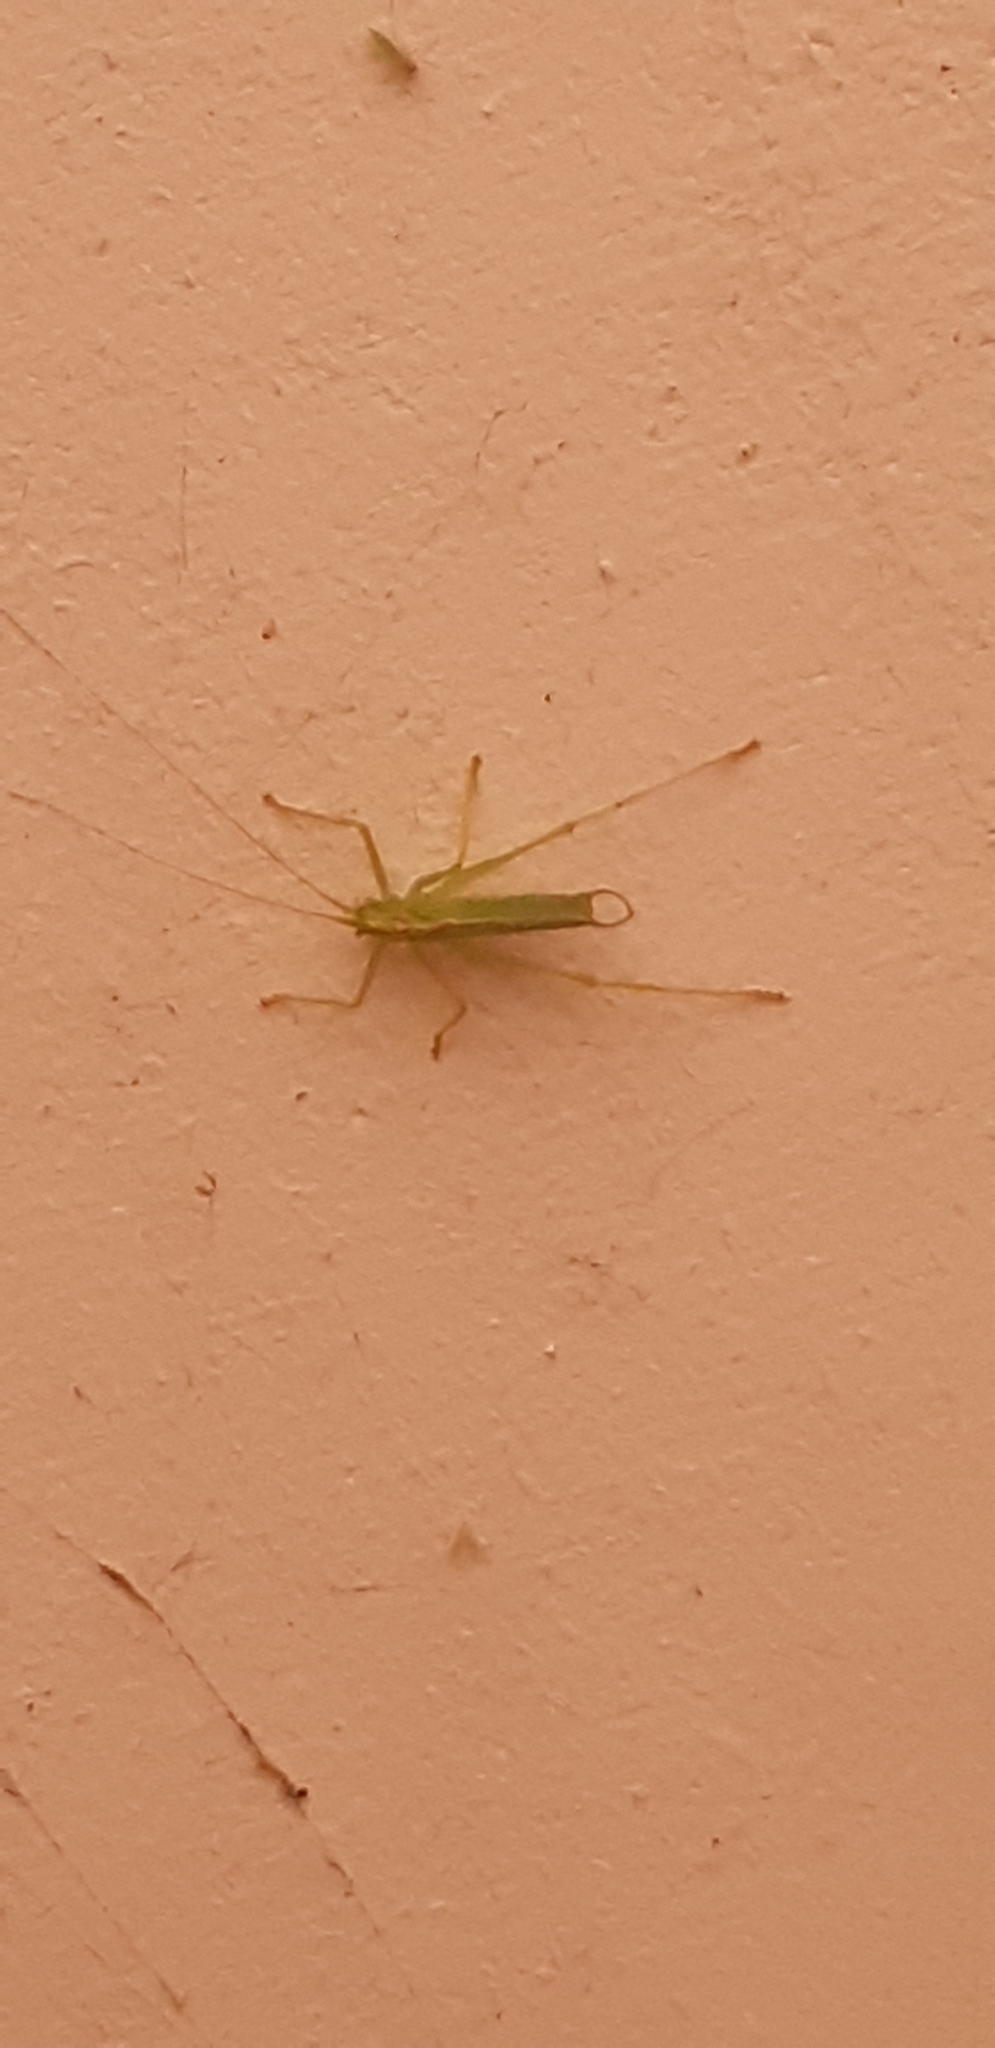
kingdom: Animalia
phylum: Arthropoda
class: Insecta
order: Orthoptera
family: Tettigoniidae
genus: Meconema
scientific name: Meconema thalassinum
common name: Oak bush-cricket
